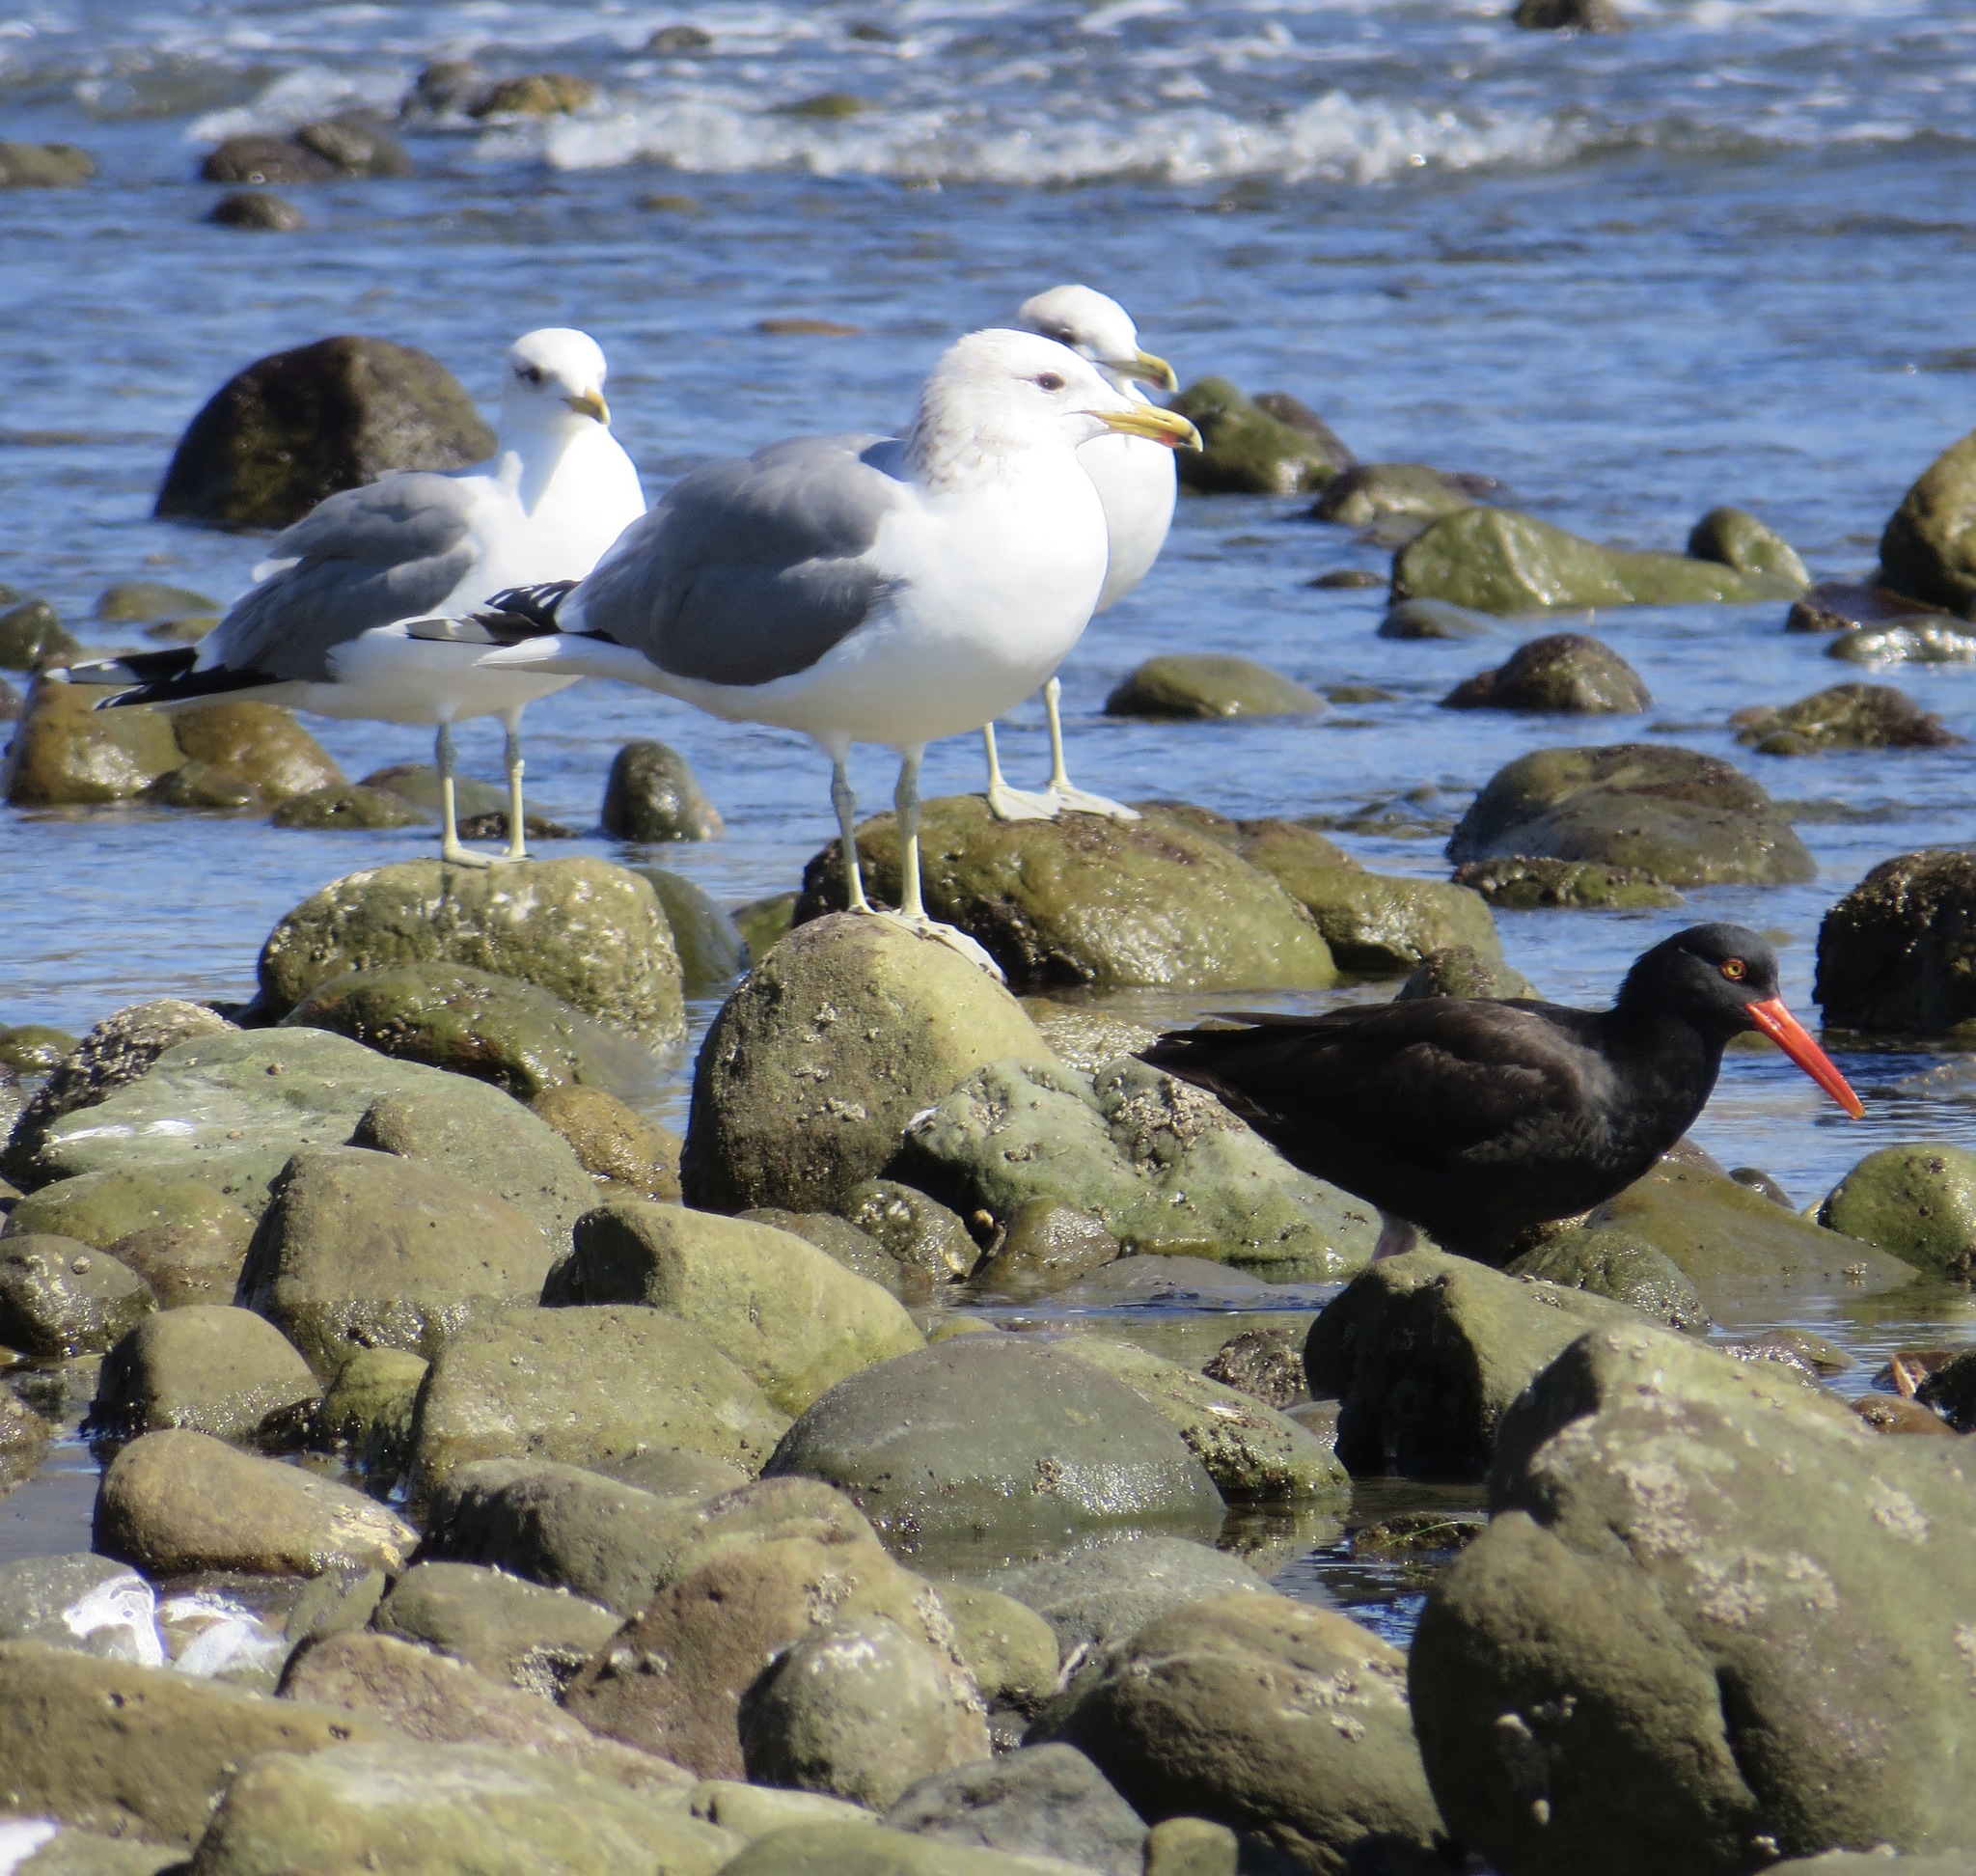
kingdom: Animalia
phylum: Chordata
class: Aves
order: Charadriiformes
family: Haematopodidae
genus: Haematopus
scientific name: Haematopus bachmani
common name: Black oystercatcher
